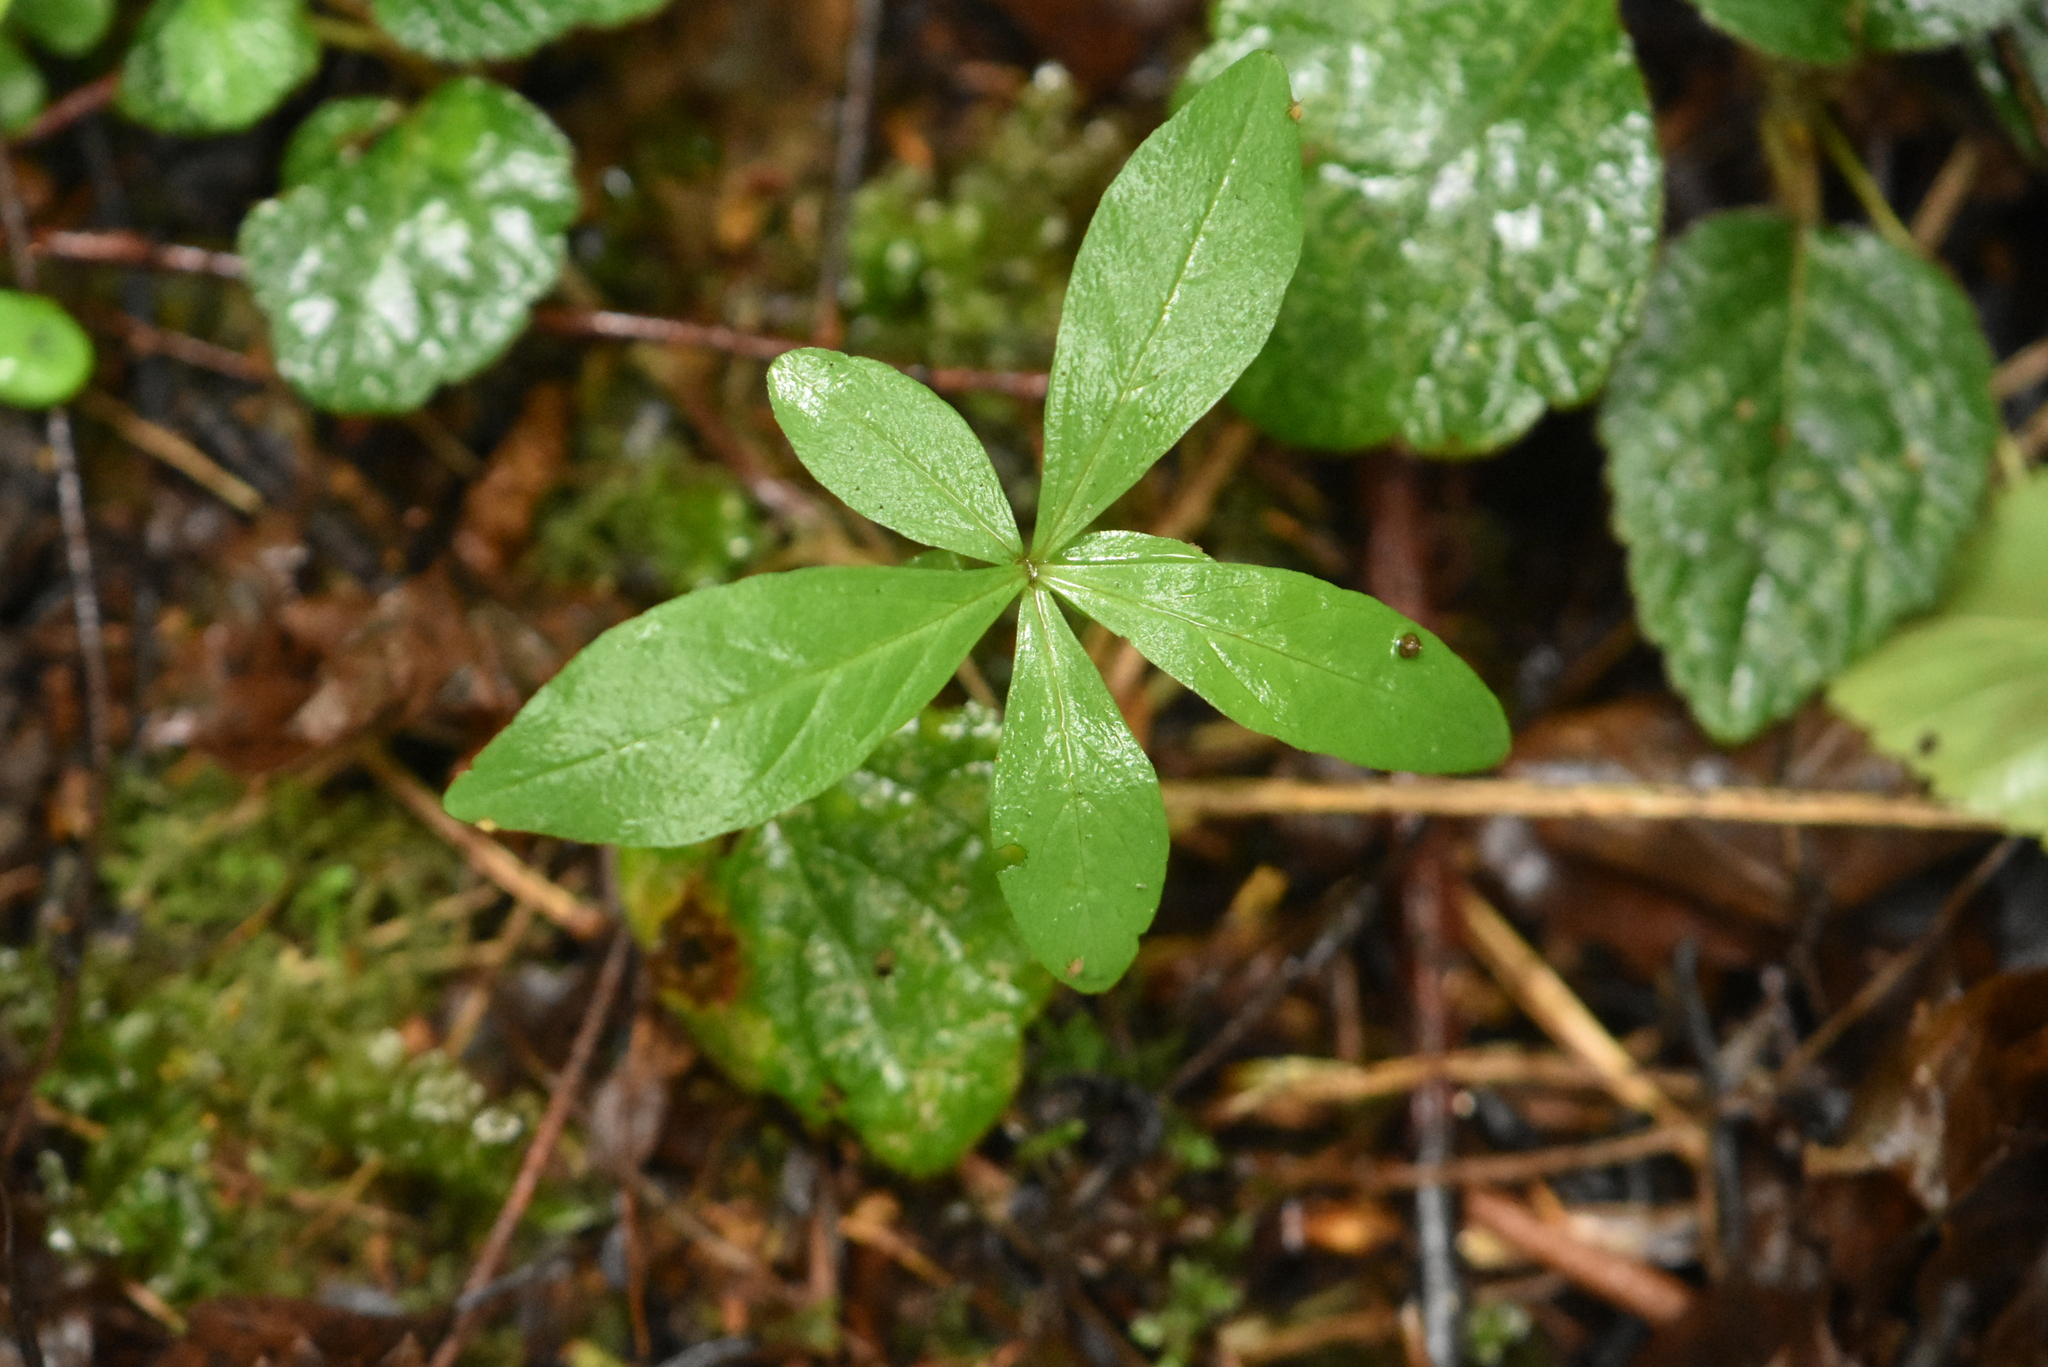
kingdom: Plantae
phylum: Tracheophyta
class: Magnoliopsida
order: Ericales
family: Primulaceae
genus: Lysimachia
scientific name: Lysimachia europaea
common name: Arctic starflower
